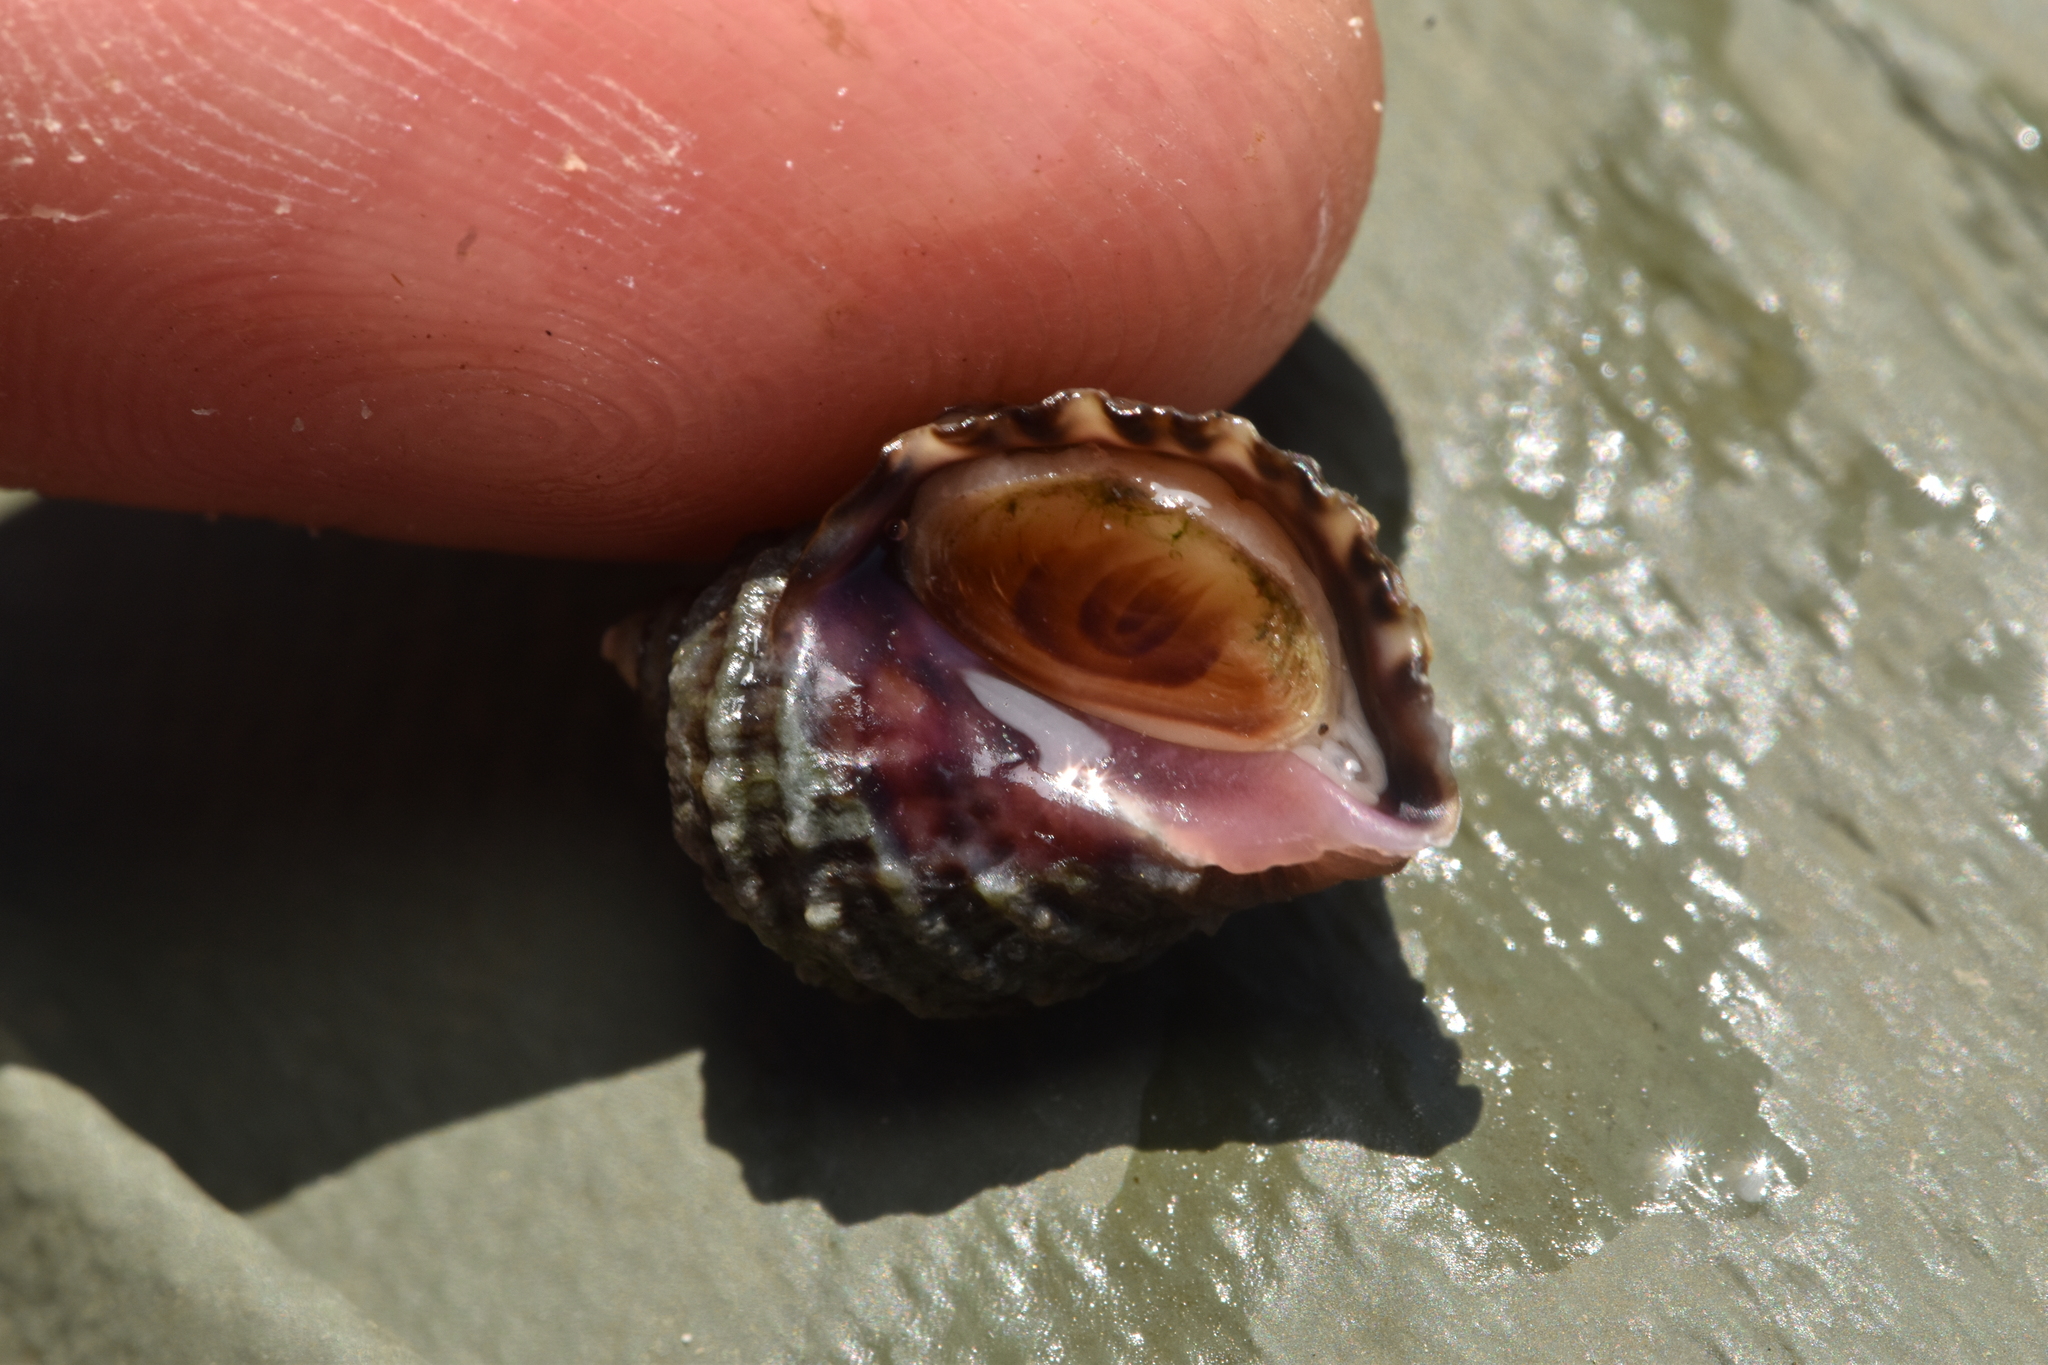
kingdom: Animalia
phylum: Mollusca
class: Gastropoda
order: Neogastropoda
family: Muricidae
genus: Nucella
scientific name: Nucella ostrina
